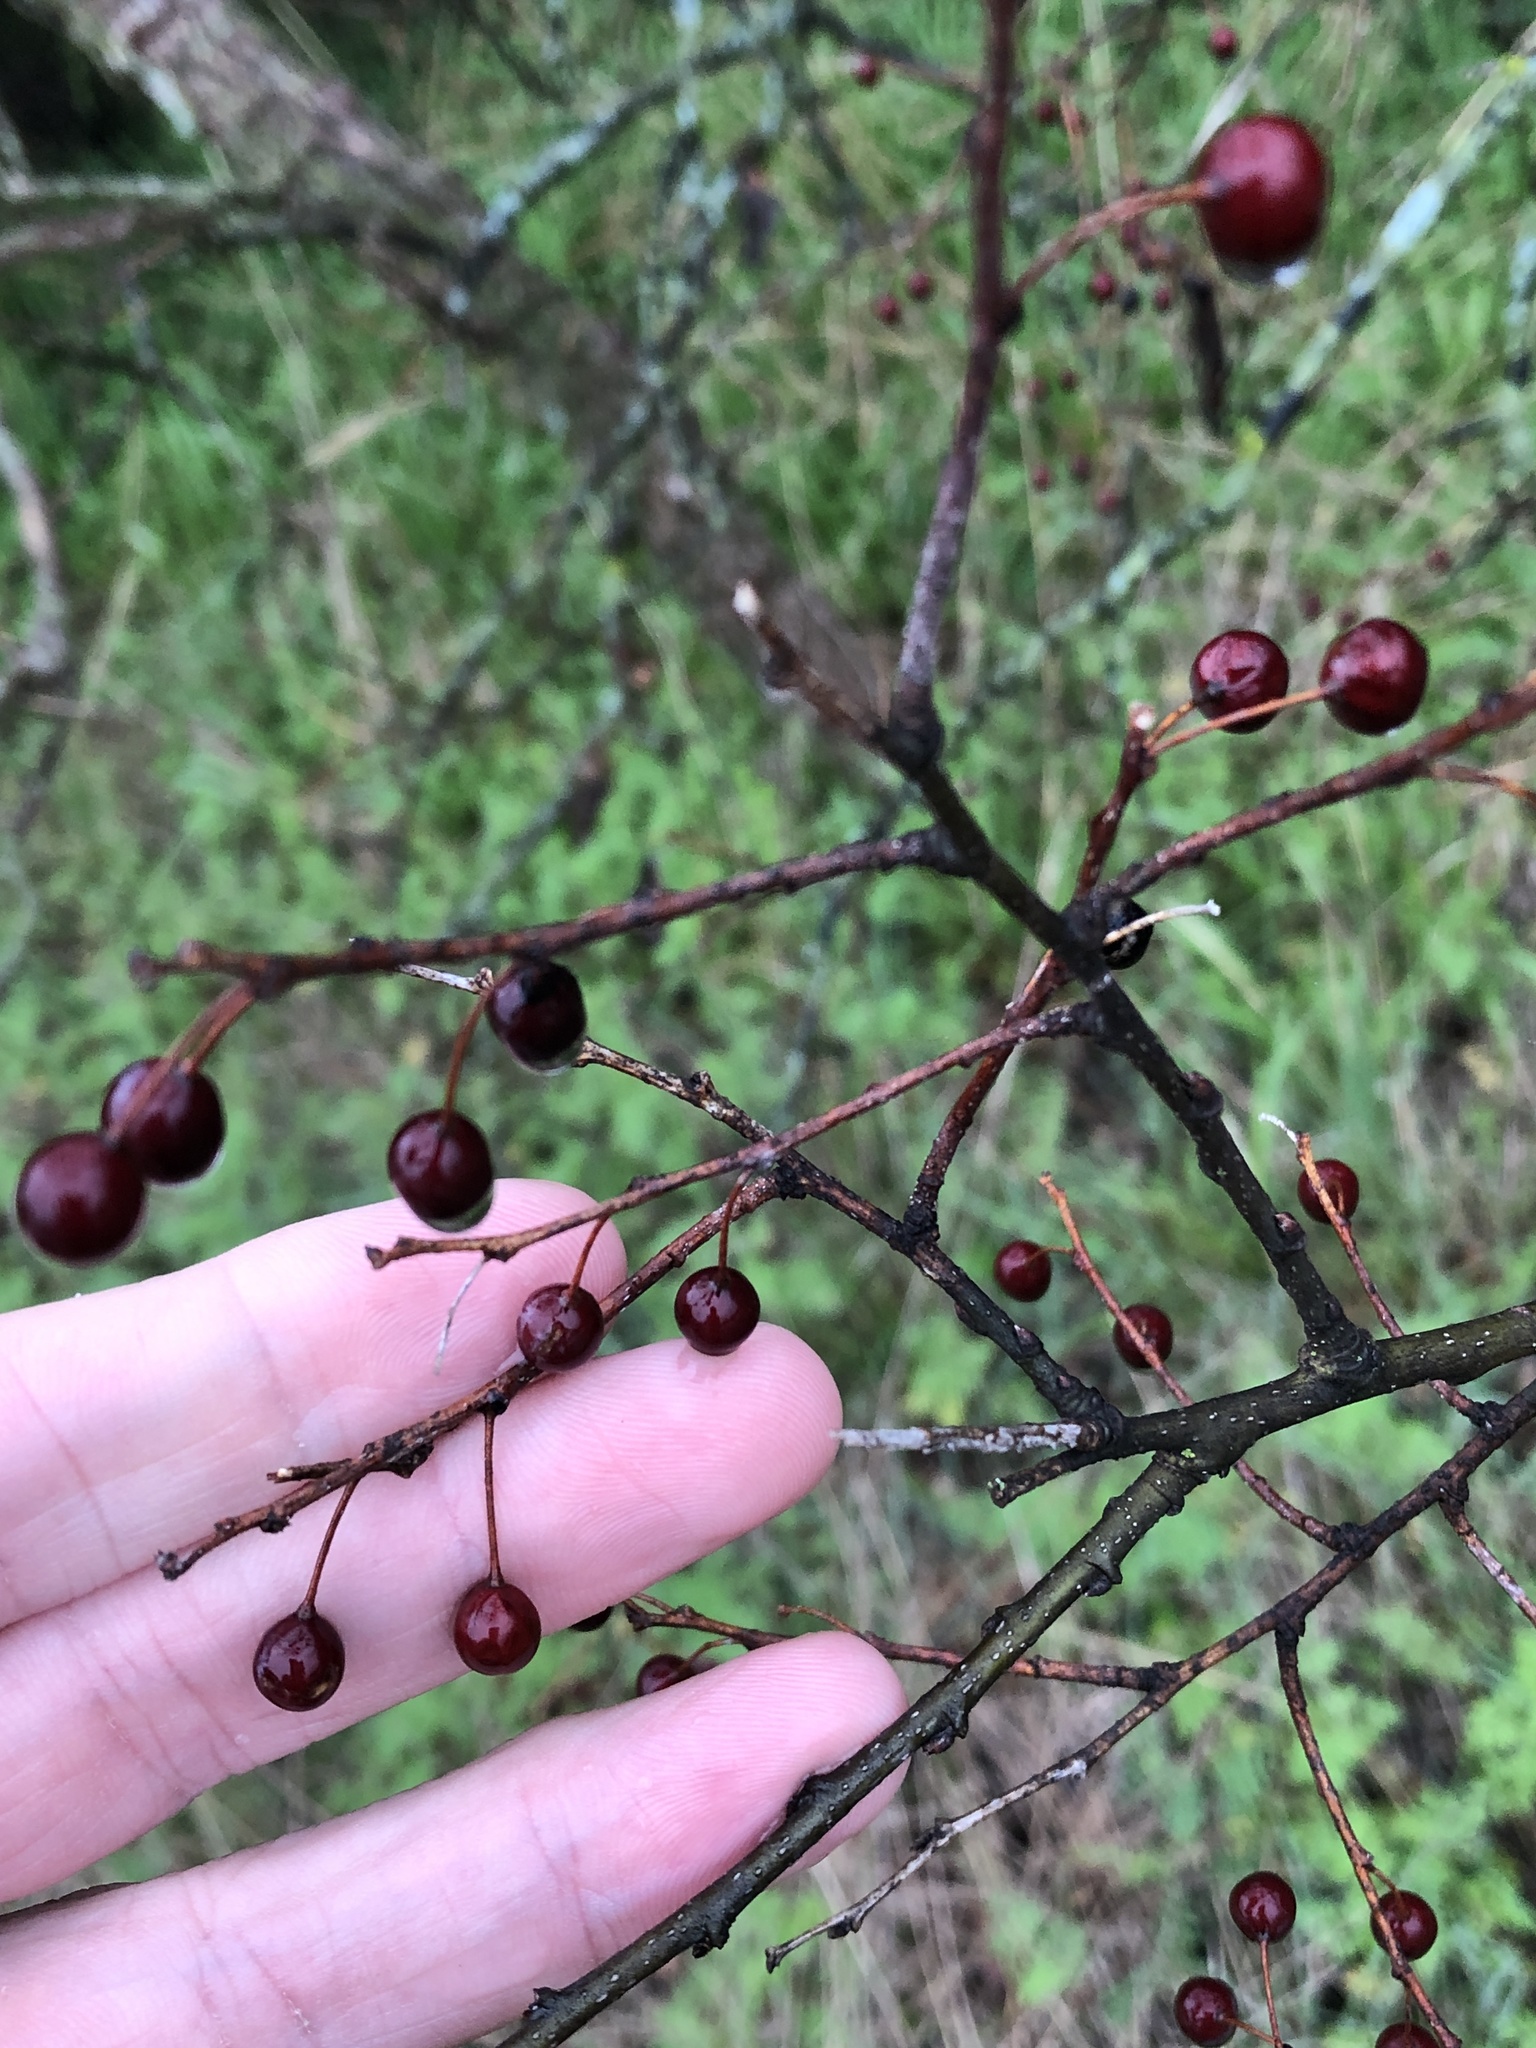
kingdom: Plantae
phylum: Tracheophyta
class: Magnoliopsida
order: Rosales
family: Cannabaceae
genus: Celtis
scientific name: Celtis laevigata
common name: Sugarberry
